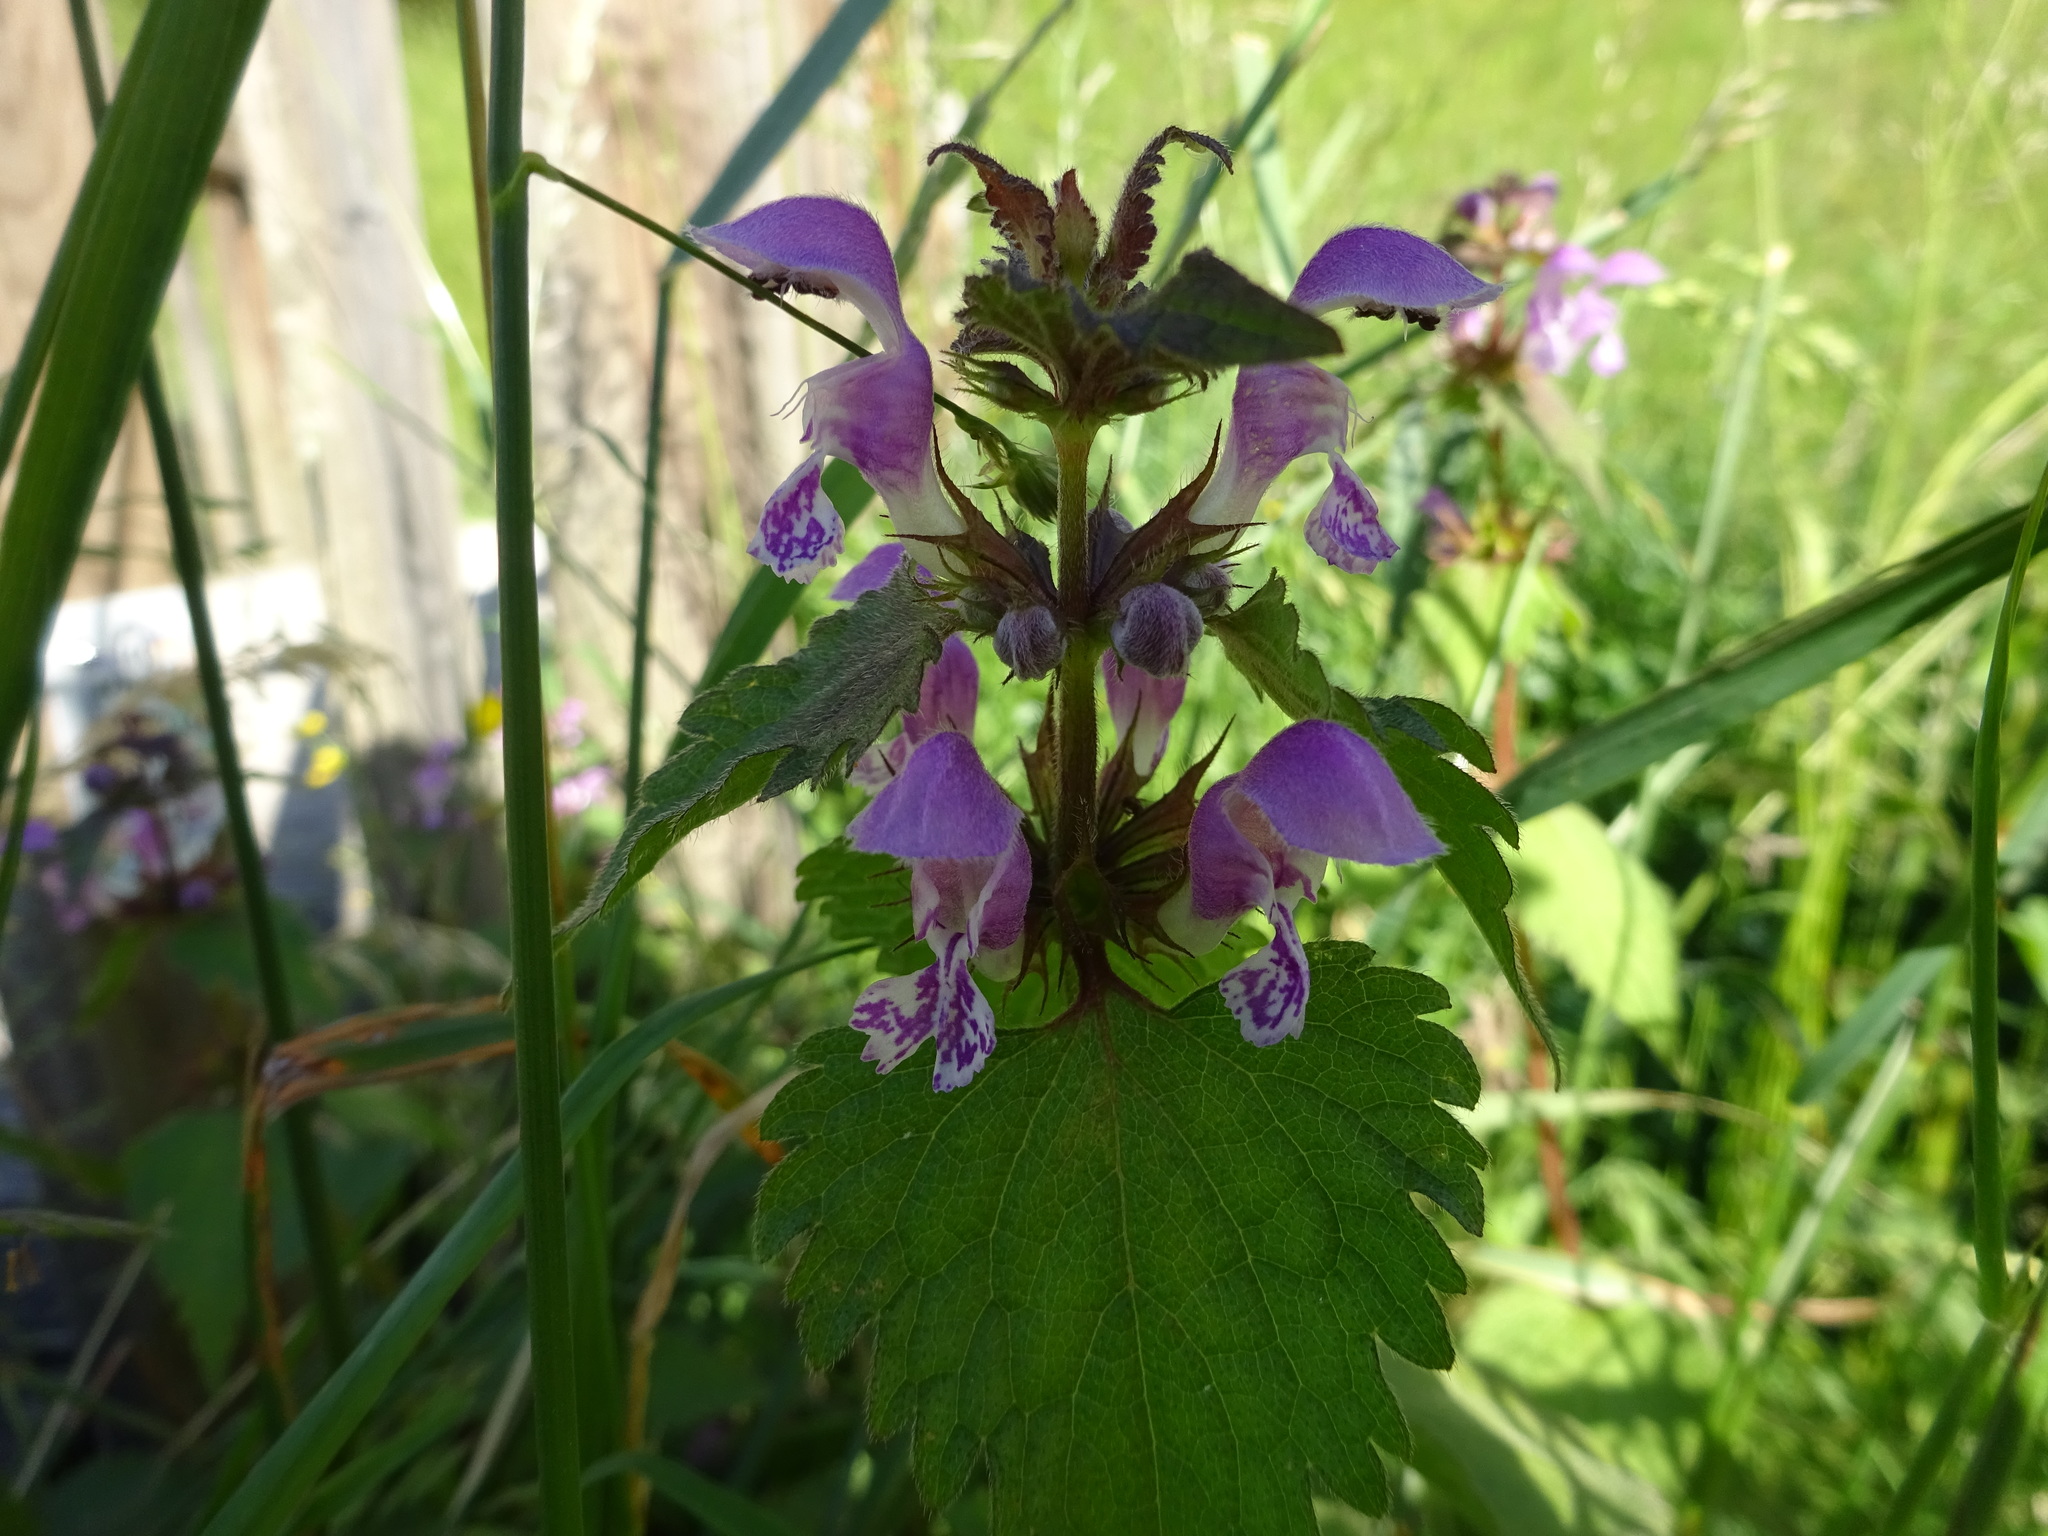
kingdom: Plantae
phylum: Tracheophyta
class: Magnoliopsida
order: Lamiales
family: Lamiaceae
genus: Lamium
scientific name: Lamium maculatum
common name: Spotted dead-nettle
